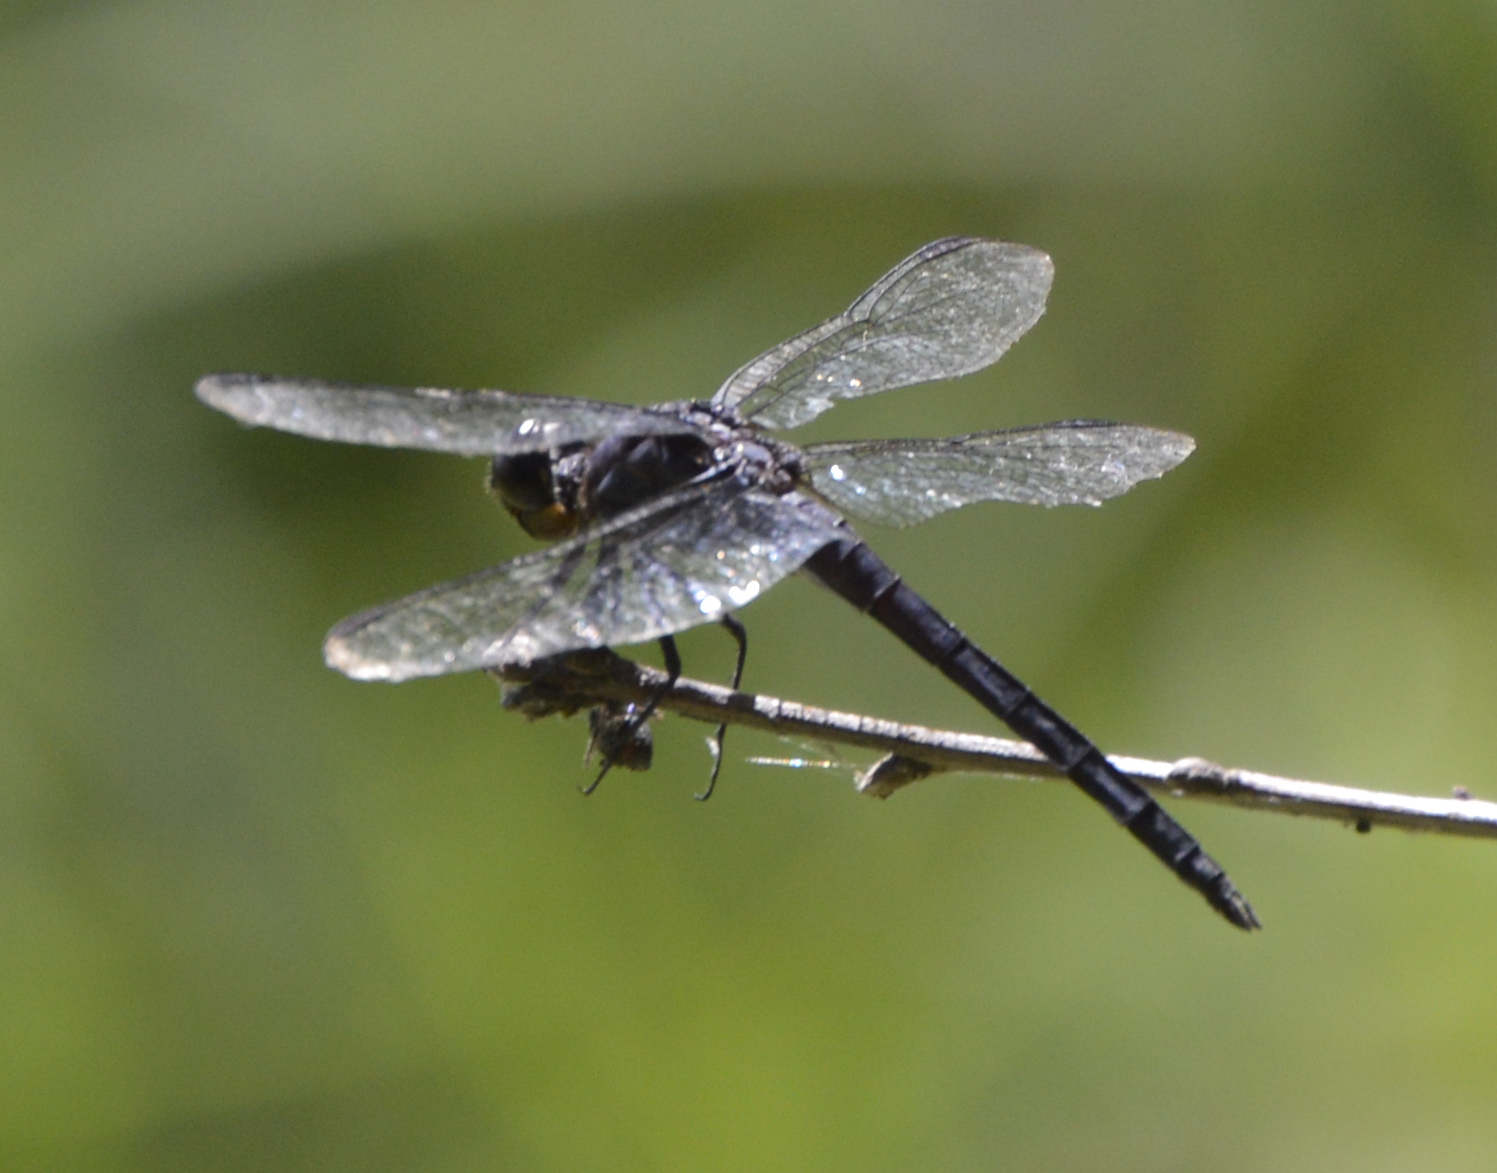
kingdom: Animalia
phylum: Arthropoda
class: Insecta
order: Odonata
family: Libellulidae
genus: Libellula
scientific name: Libellula incesta
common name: Slaty skimmer
